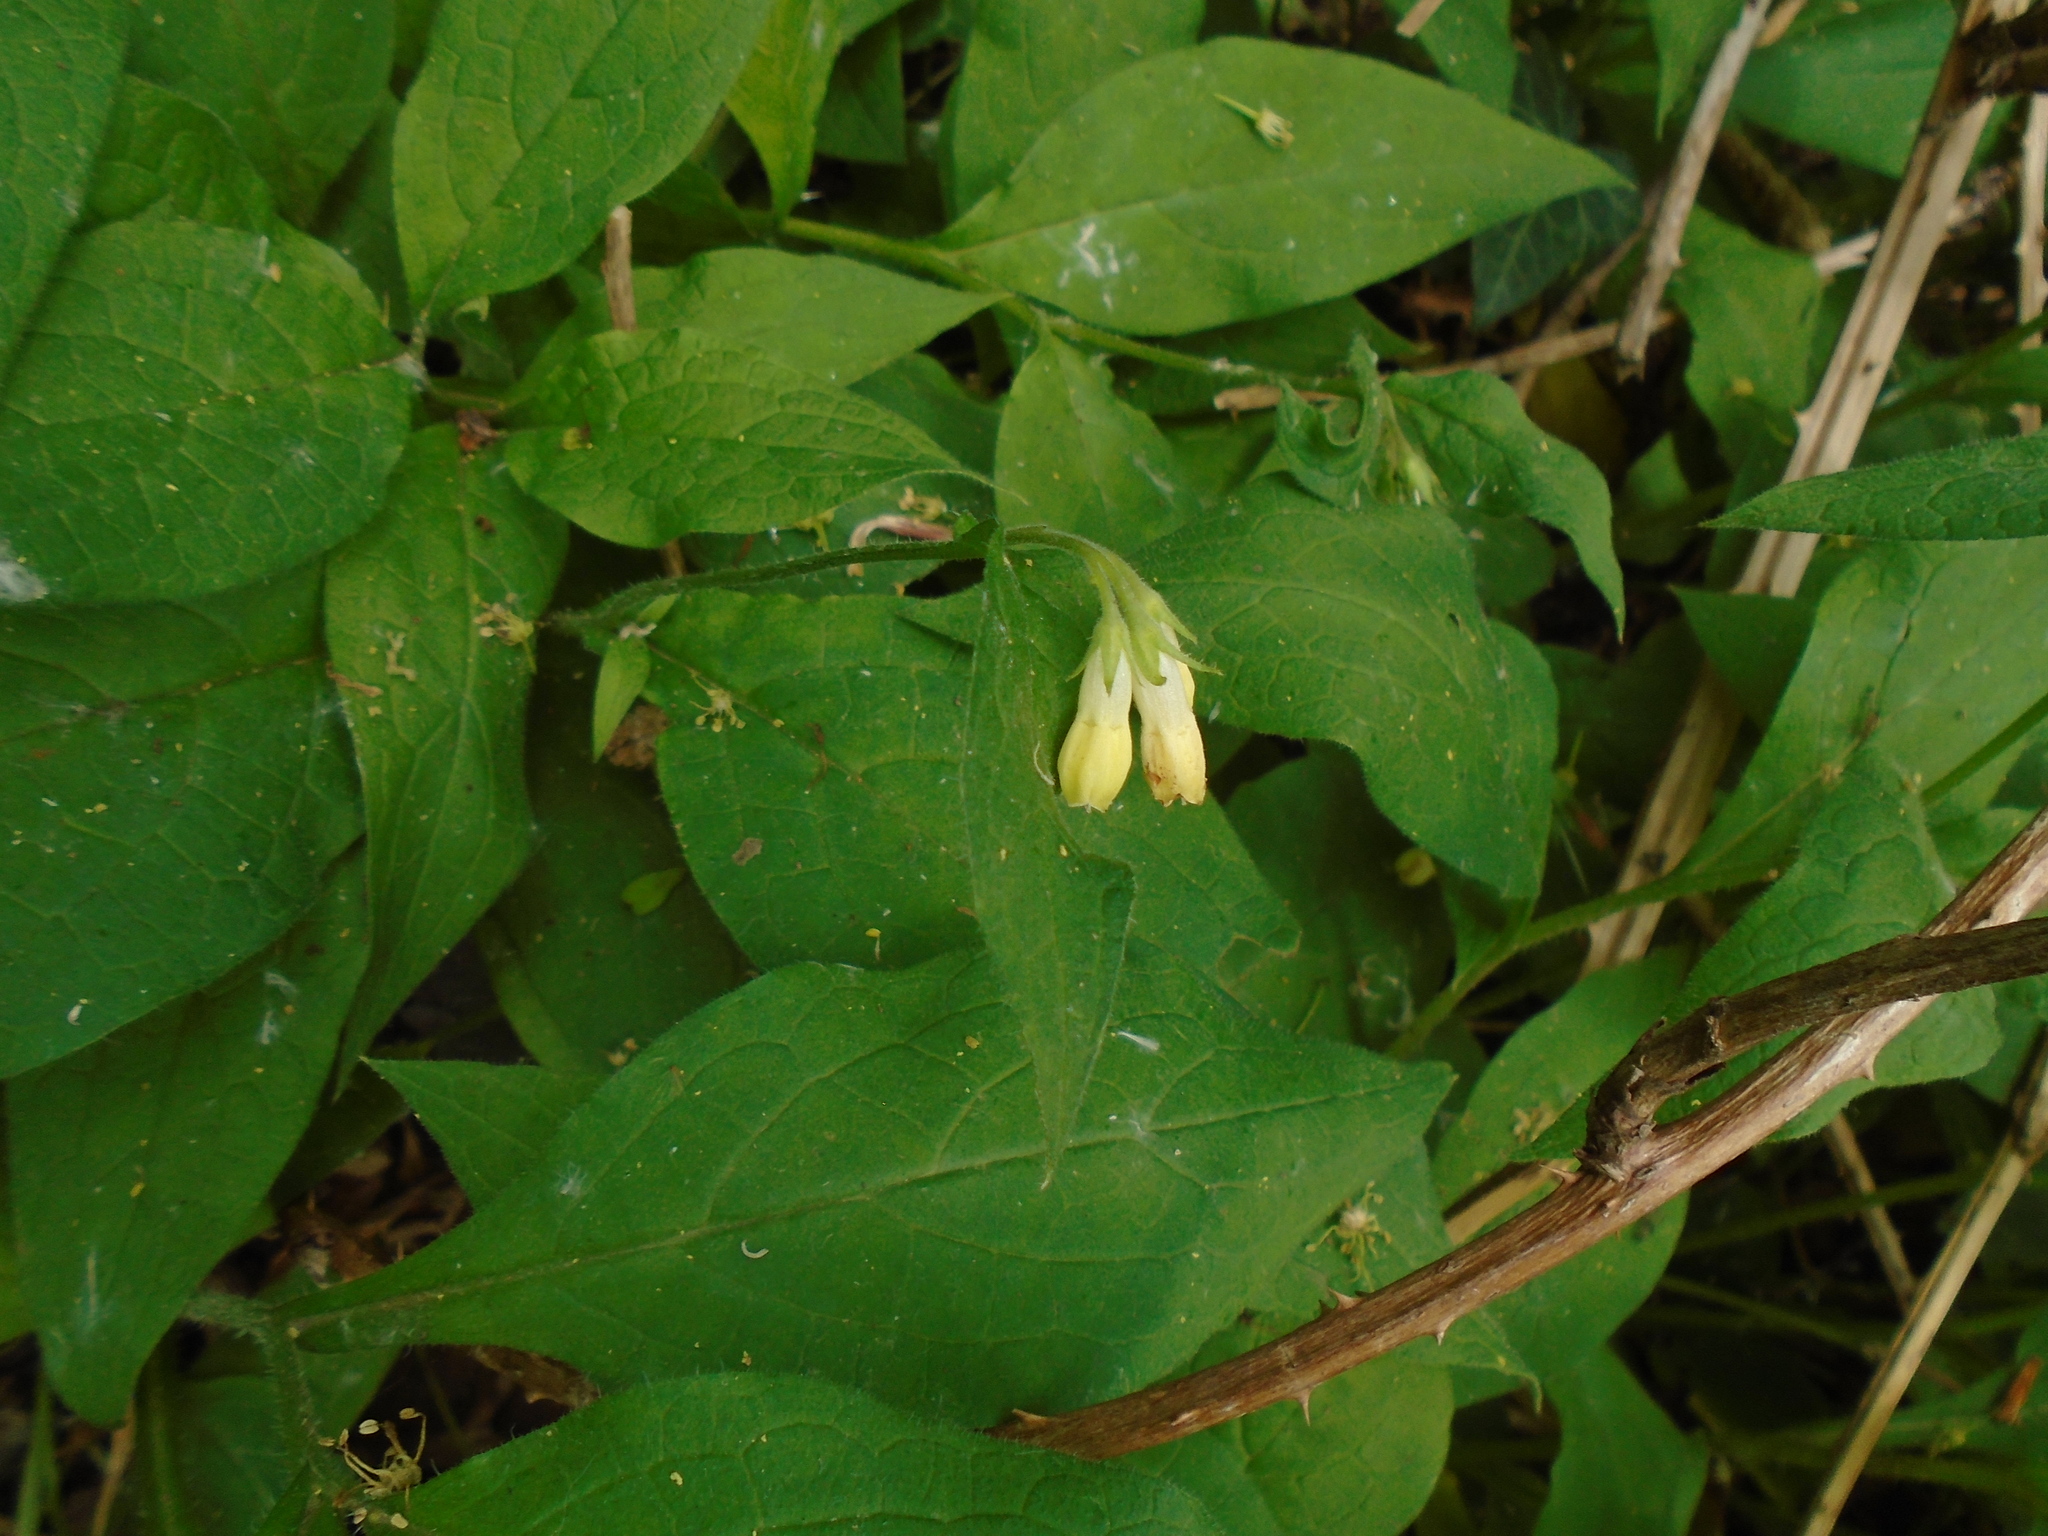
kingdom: Plantae
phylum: Tracheophyta
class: Magnoliopsida
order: Boraginales
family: Boraginaceae
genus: Symphytum
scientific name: Symphytum tuberosum
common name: Tuberous comfrey
